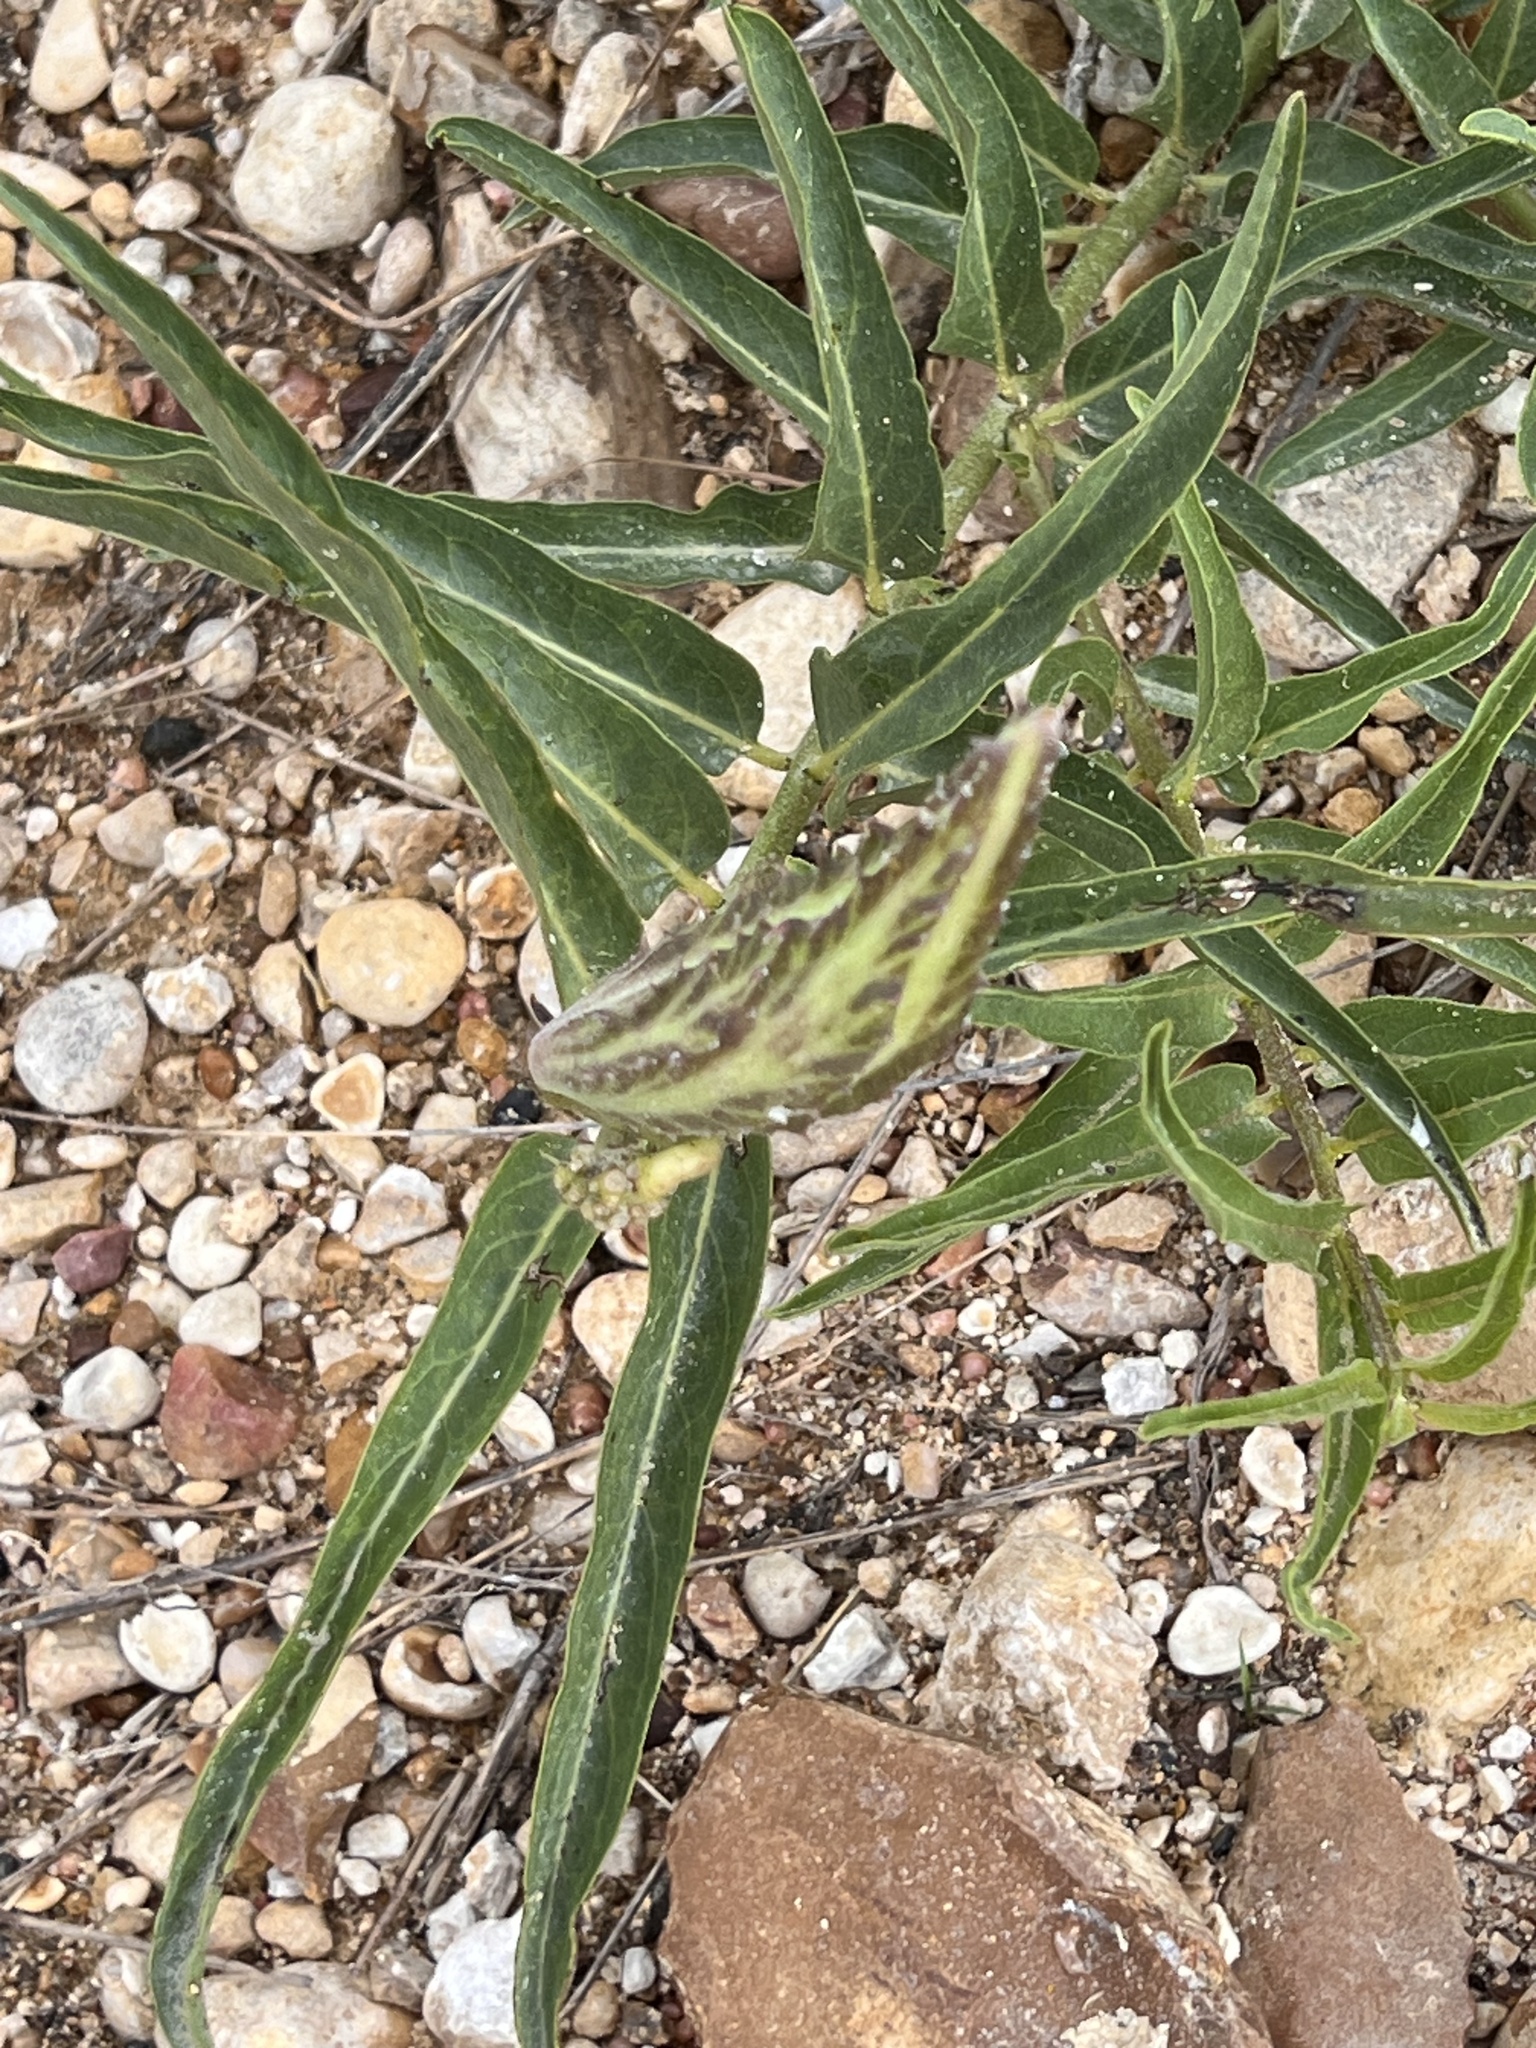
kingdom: Plantae
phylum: Tracheophyta
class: Magnoliopsida
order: Gentianales
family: Apocynaceae
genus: Asclepias
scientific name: Asclepias asperula
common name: Antelope horns
